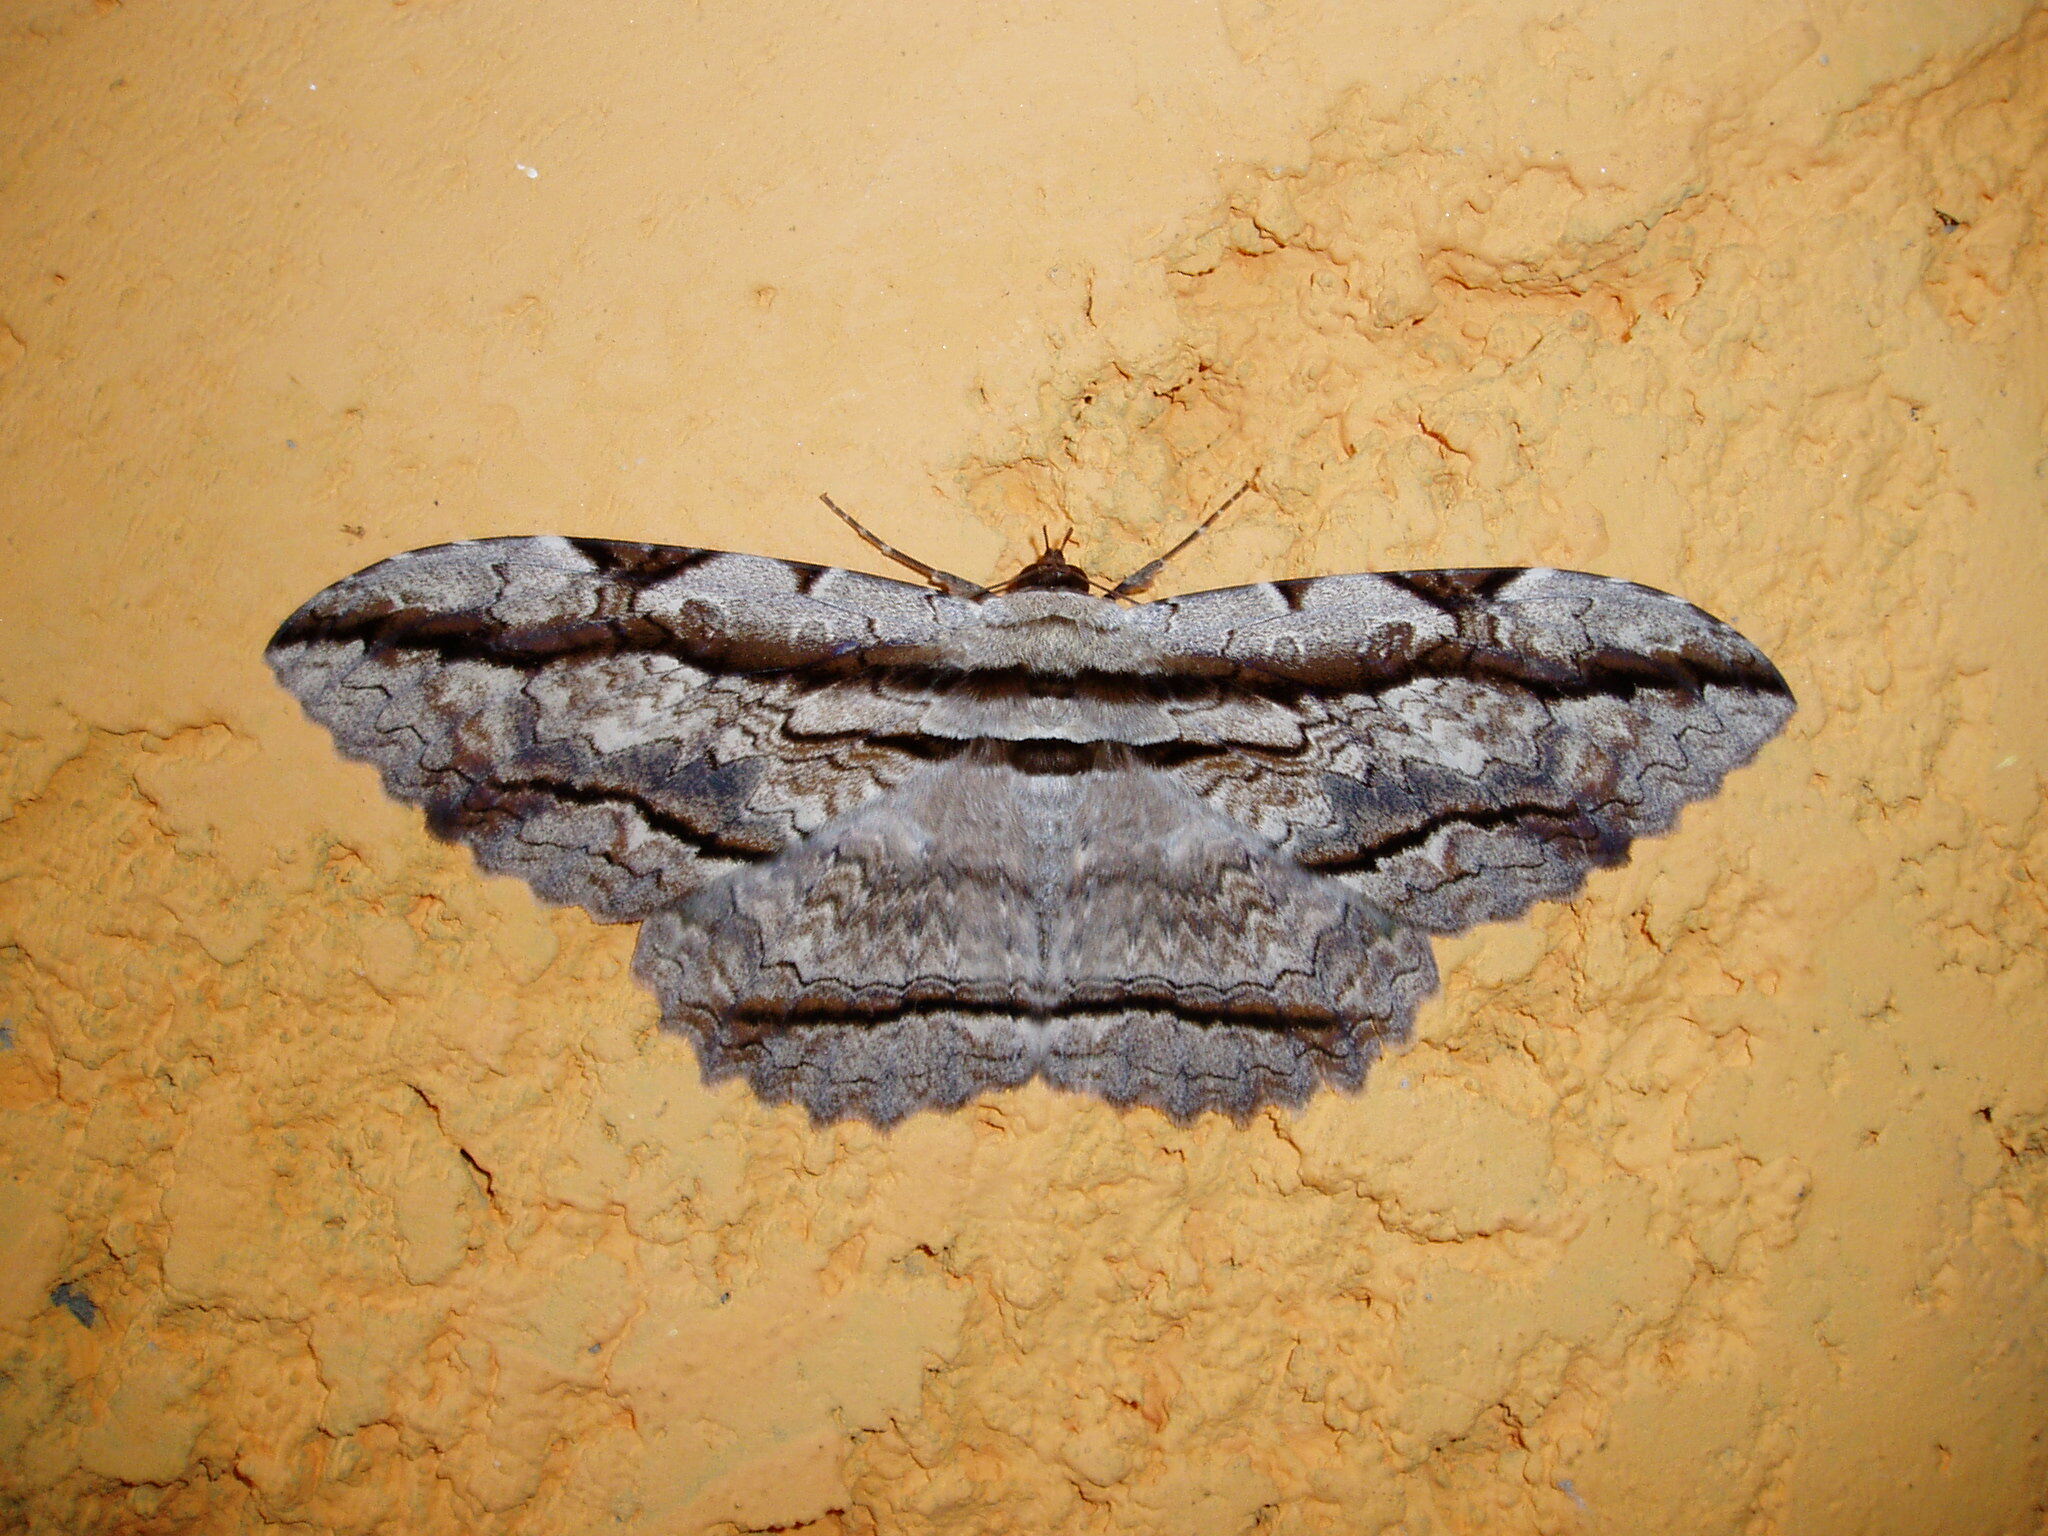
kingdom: Animalia
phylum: Arthropoda
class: Insecta
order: Lepidoptera
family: Erebidae
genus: Thysania
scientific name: Thysania zenobia
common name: Owl moth
